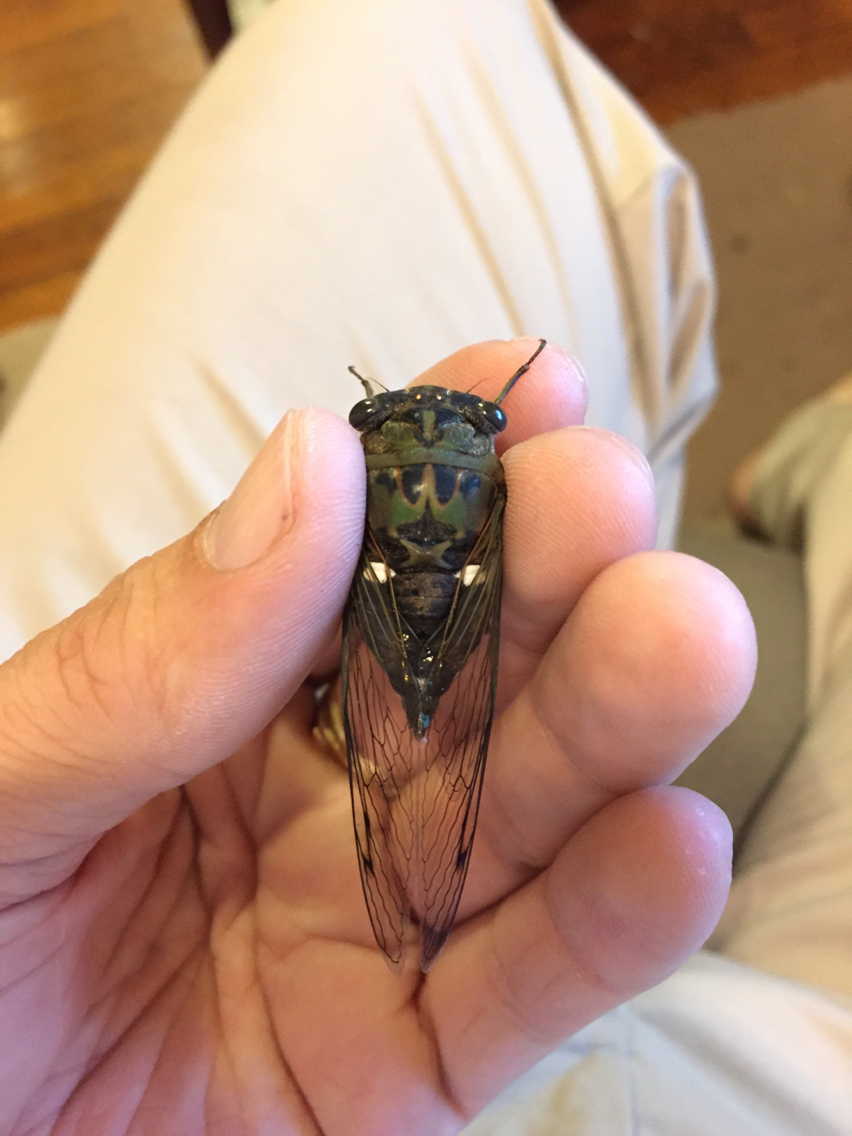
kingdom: Animalia
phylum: Arthropoda
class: Insecta
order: Hemiptera
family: Cicadidae
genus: Neotibicen
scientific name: Neotibicen pruinosus
